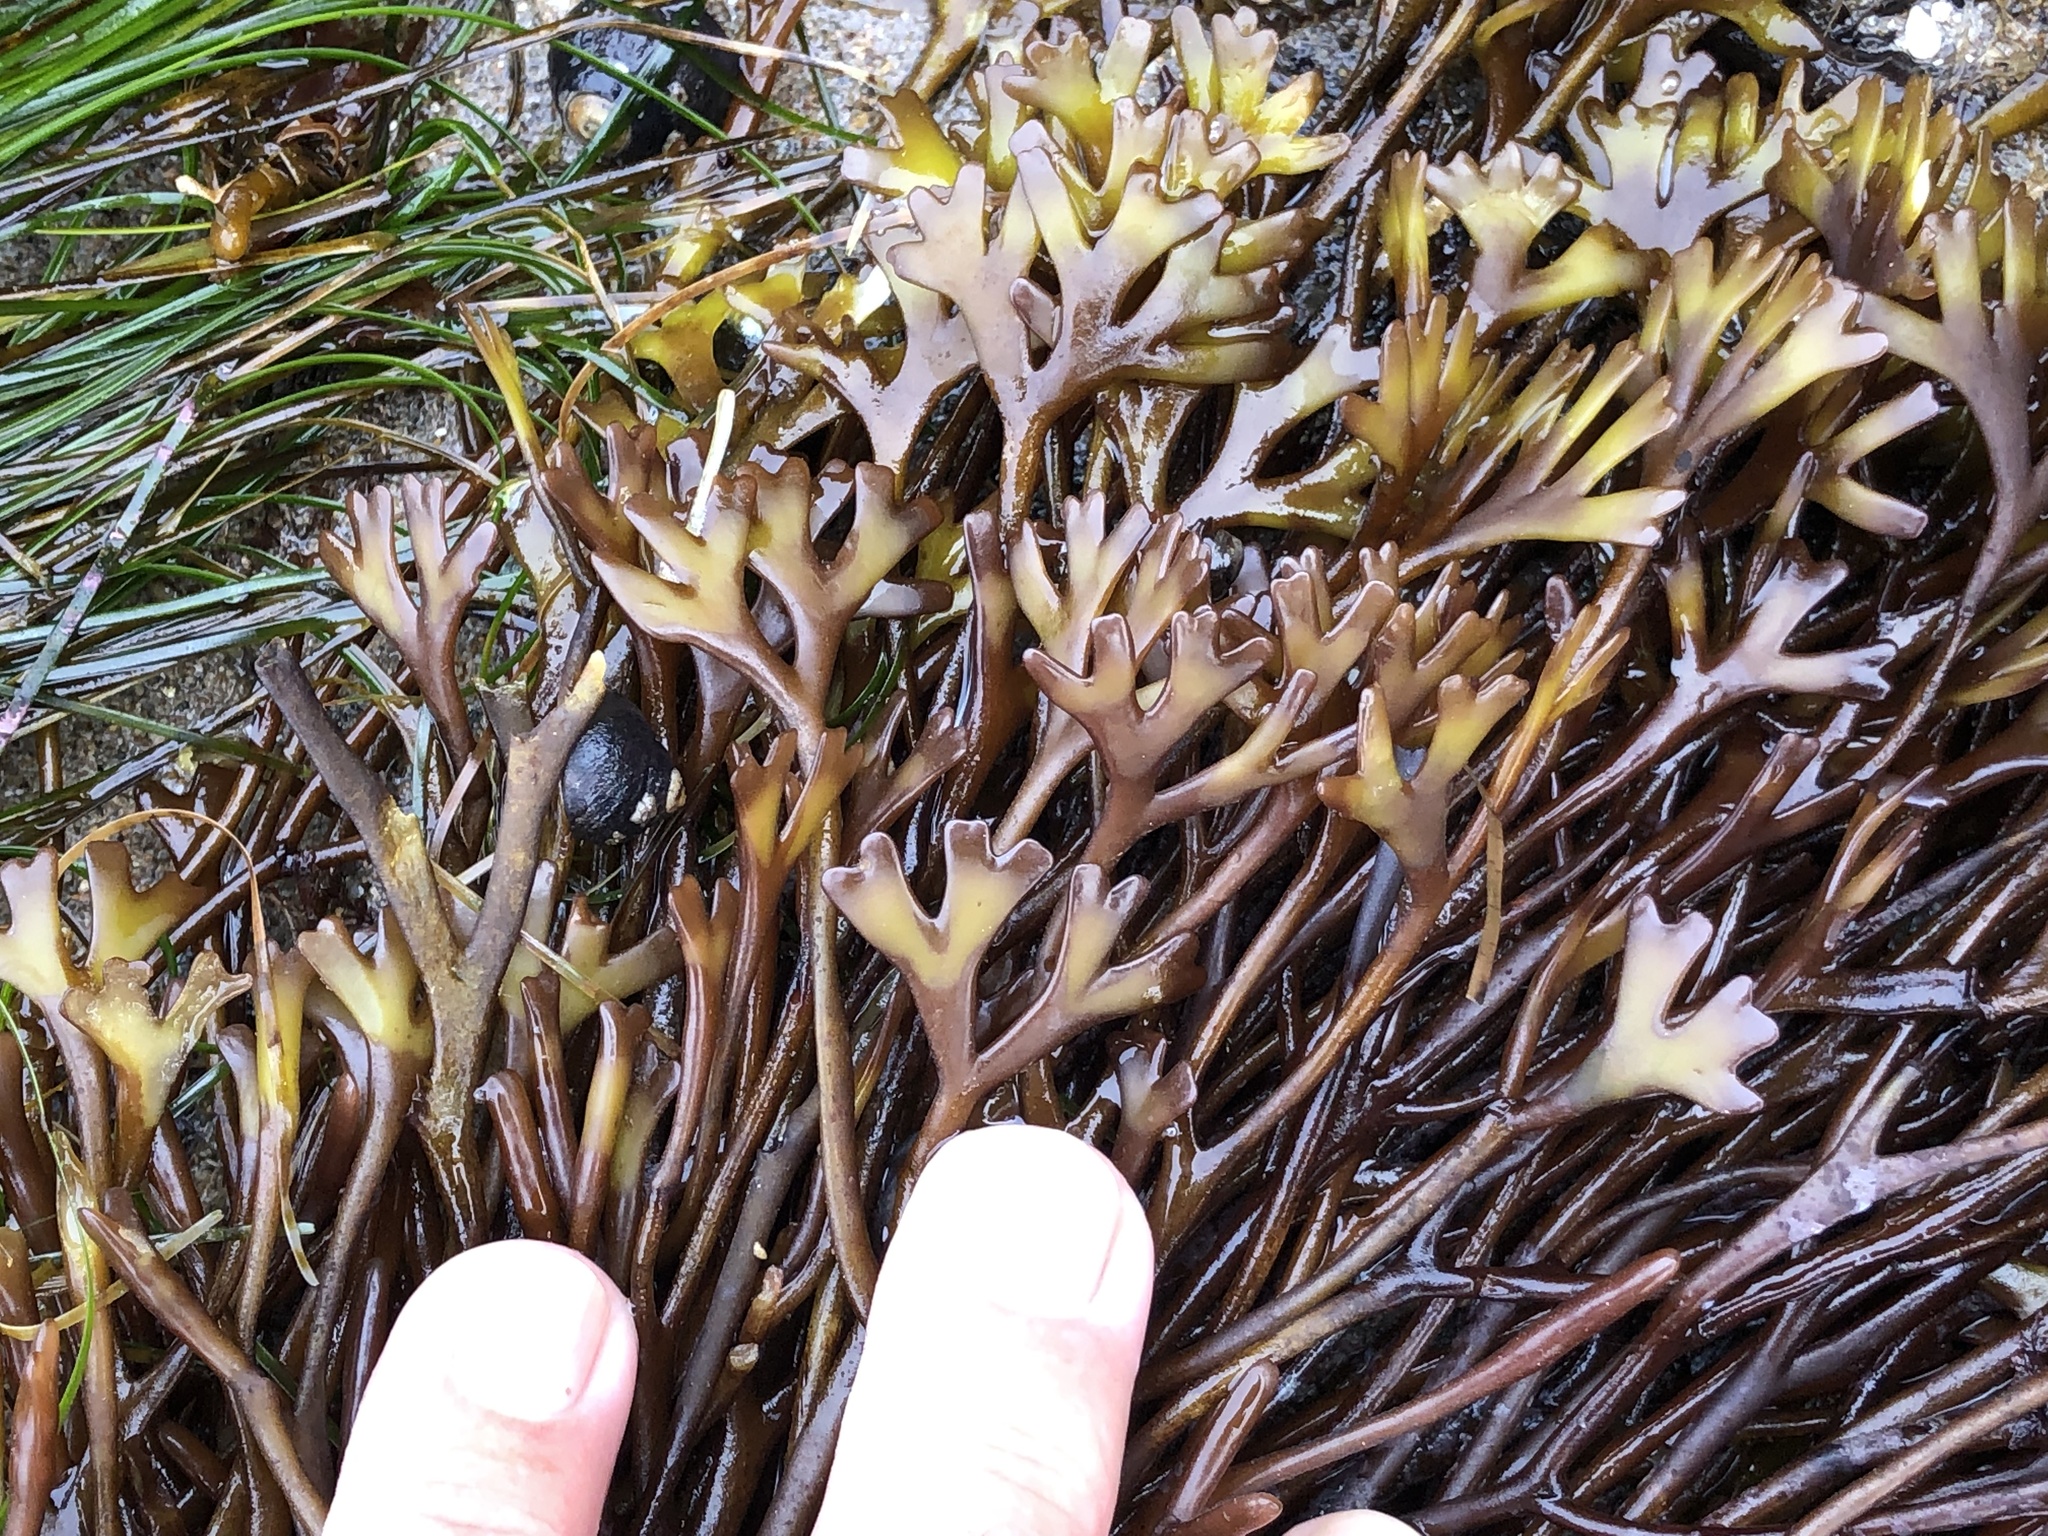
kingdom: Plantae
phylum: Rhodophyta
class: Florideophyceae
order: Gigartinales
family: Phyllophoraceae
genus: Ahnfeltiopsis
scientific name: Ahnfeltiopsis linearis
